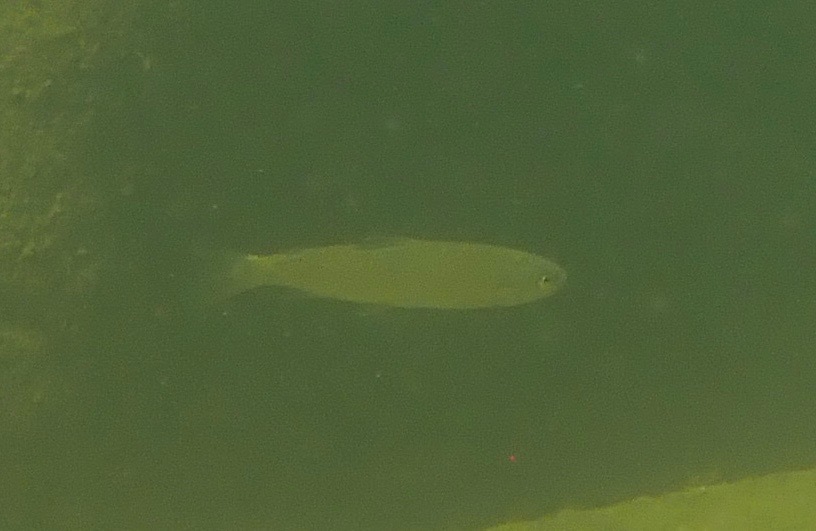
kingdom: Animalia
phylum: Chordata
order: Salmoniformes
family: Salmonidae
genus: Oncorhynchus
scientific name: Oncorhynchus mykiss
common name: Rainbow trout
